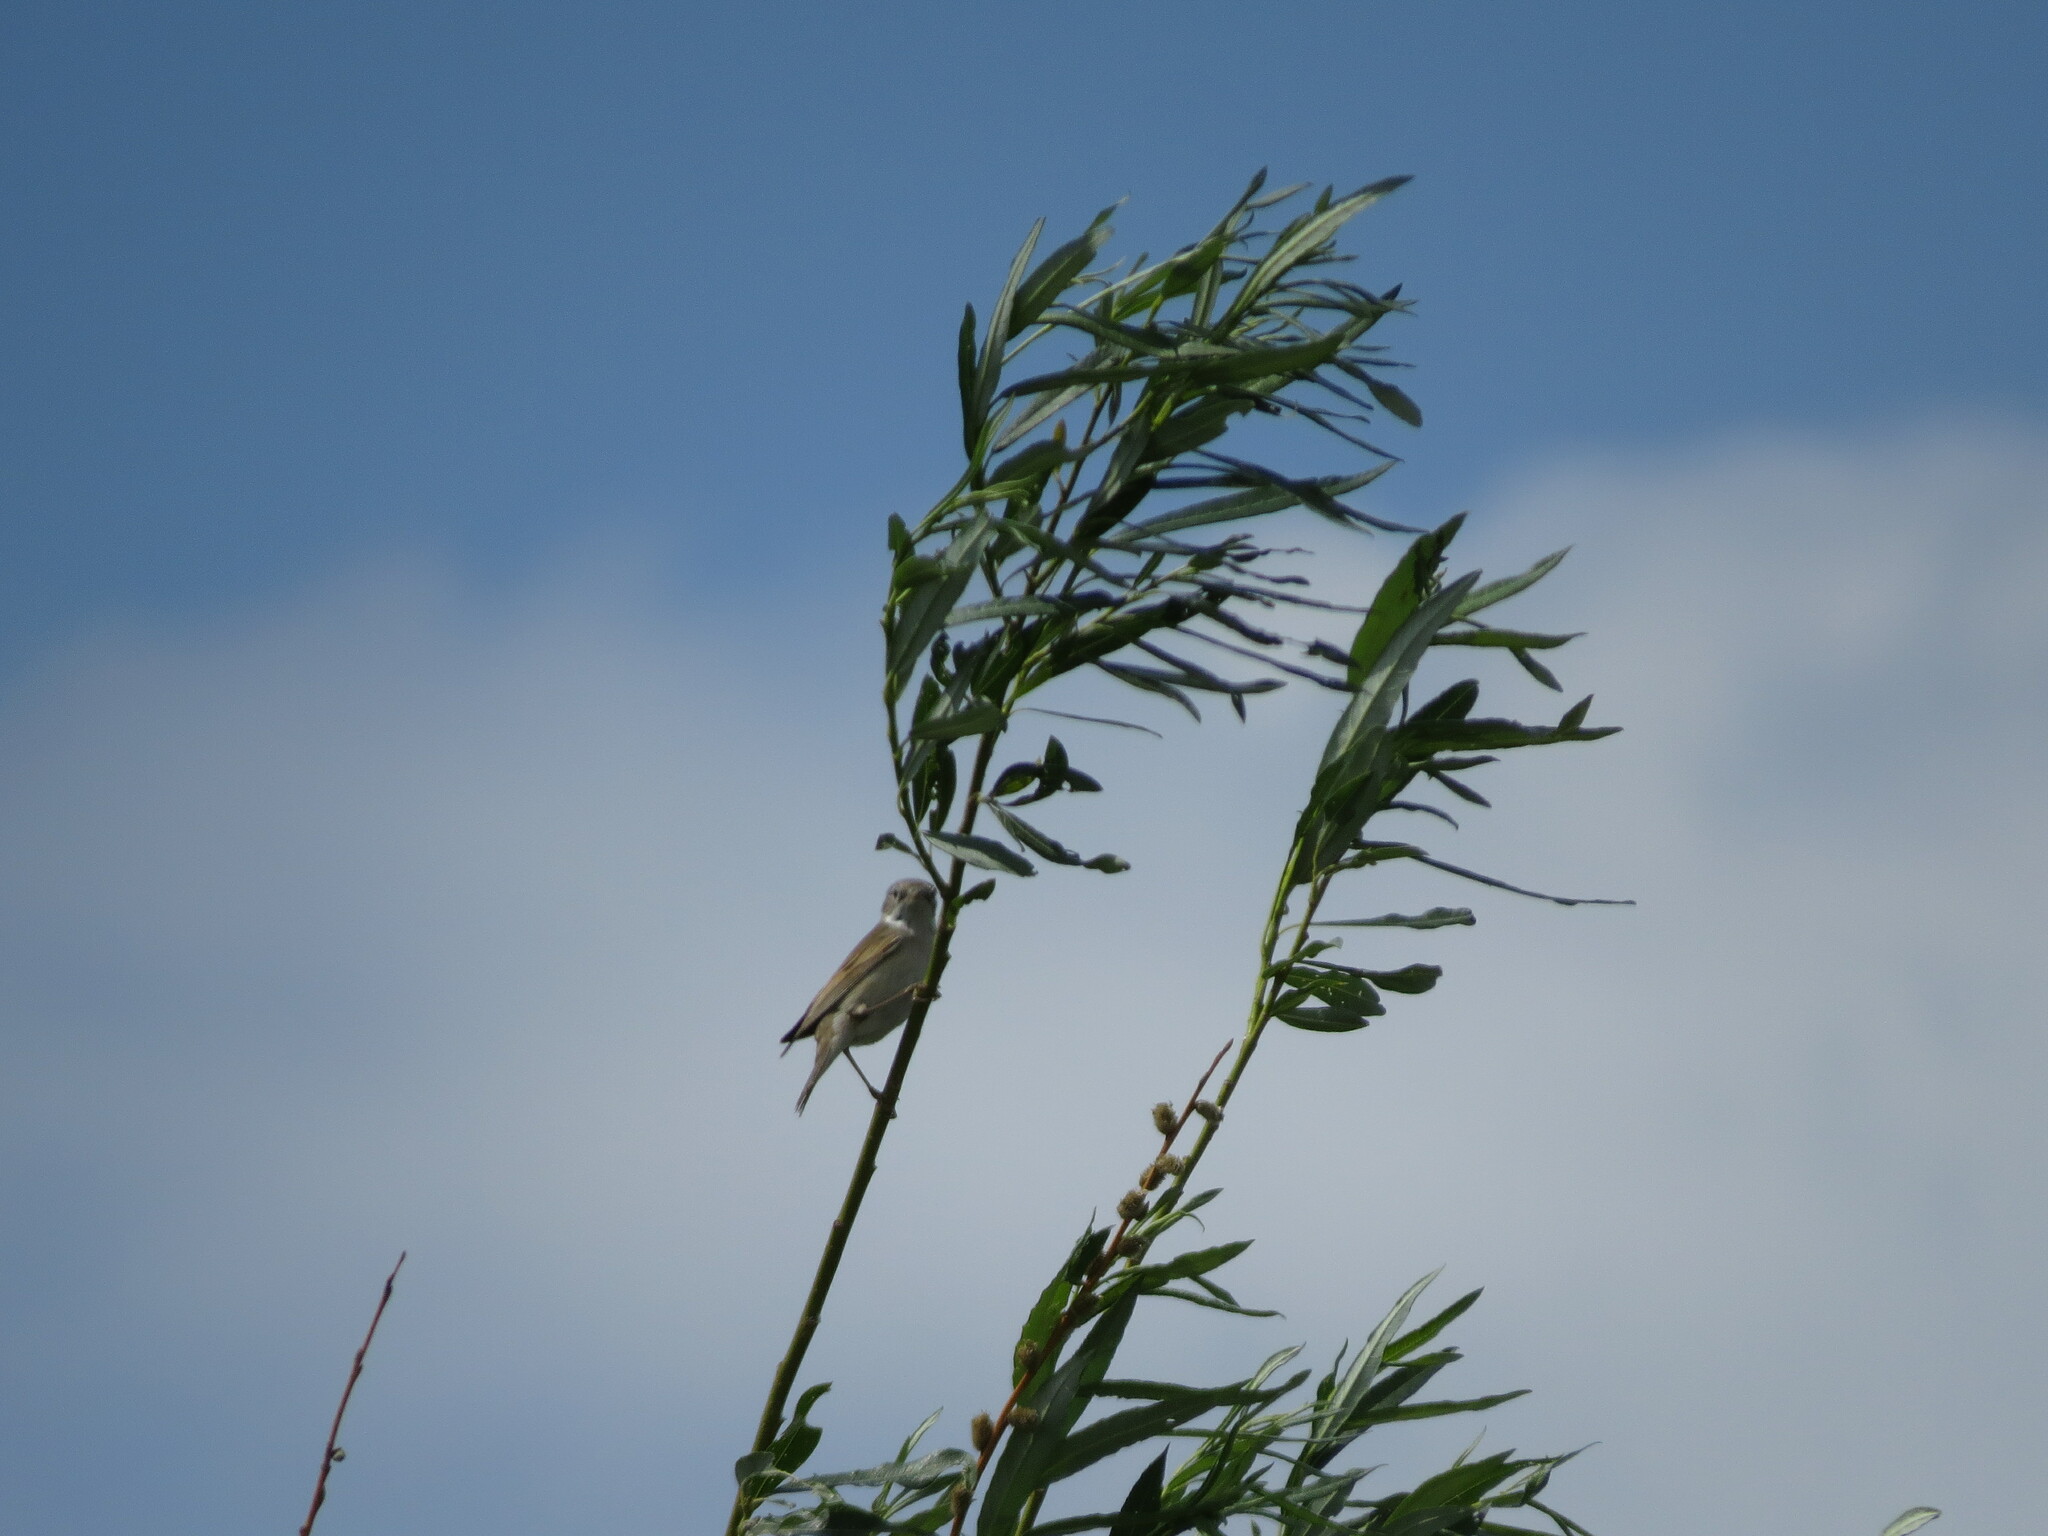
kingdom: Animalia
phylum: Chordata
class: Aves
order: Passeriformes
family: Sylviidae
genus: Sylvia
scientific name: Sylvia communis
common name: Common whitethroat
